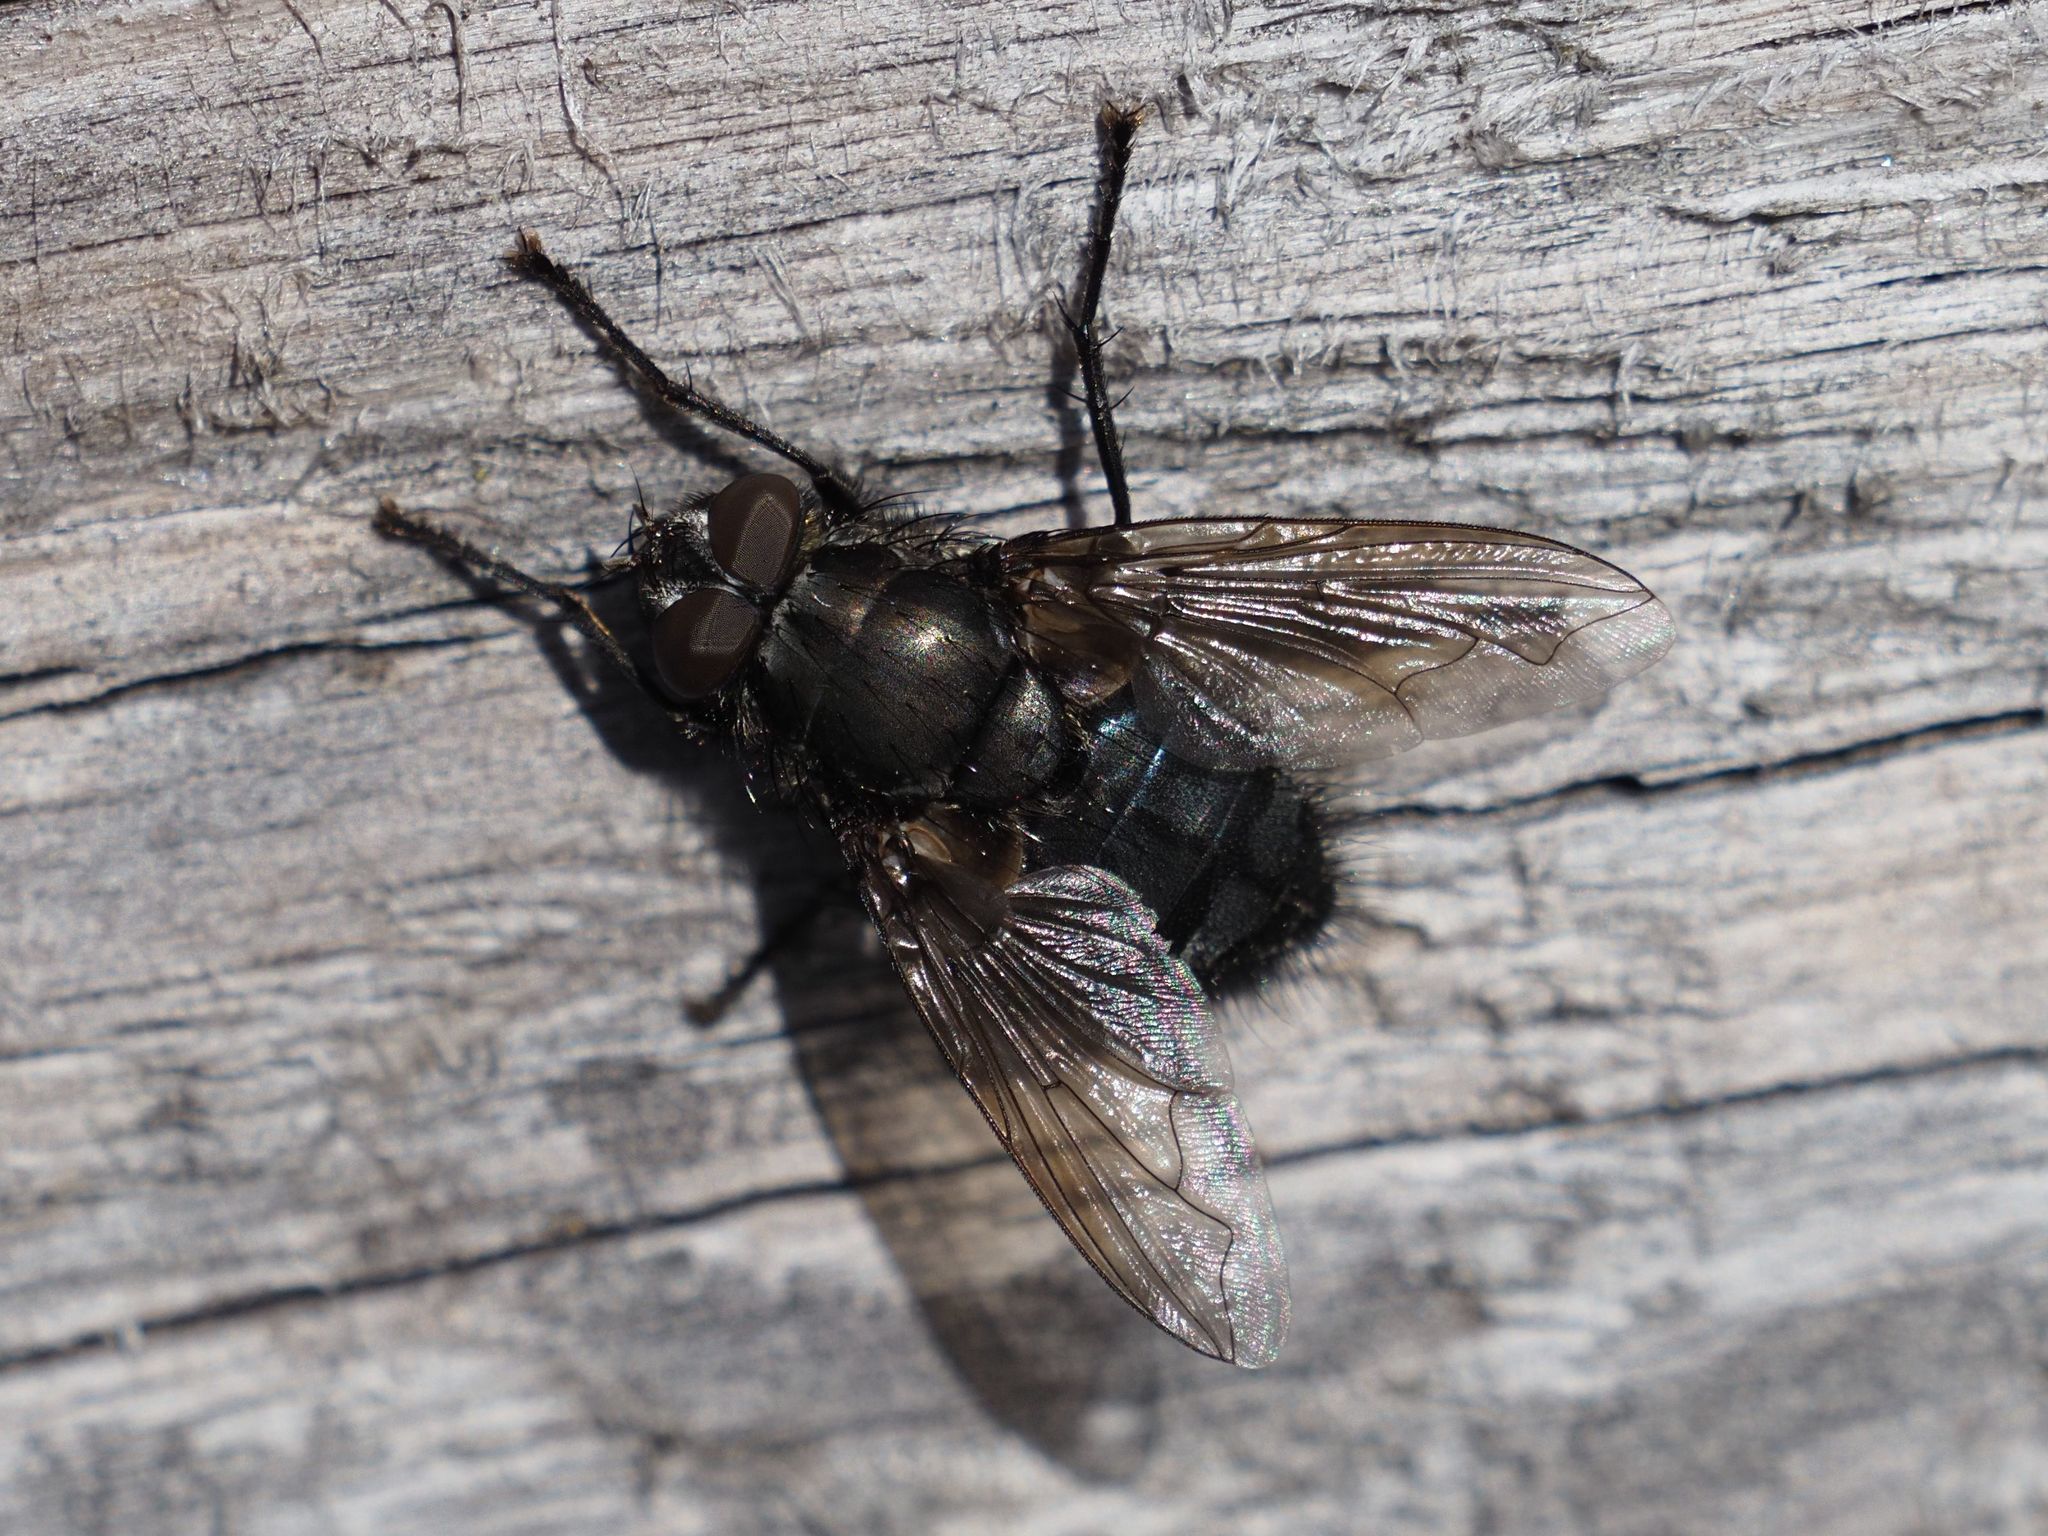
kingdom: Animalia
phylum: Arthropoda
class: Insecta
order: Diptera
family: Polleniidae
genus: Pollenia
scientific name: Pollenia vagabunda
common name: Vagabund cluster fly
